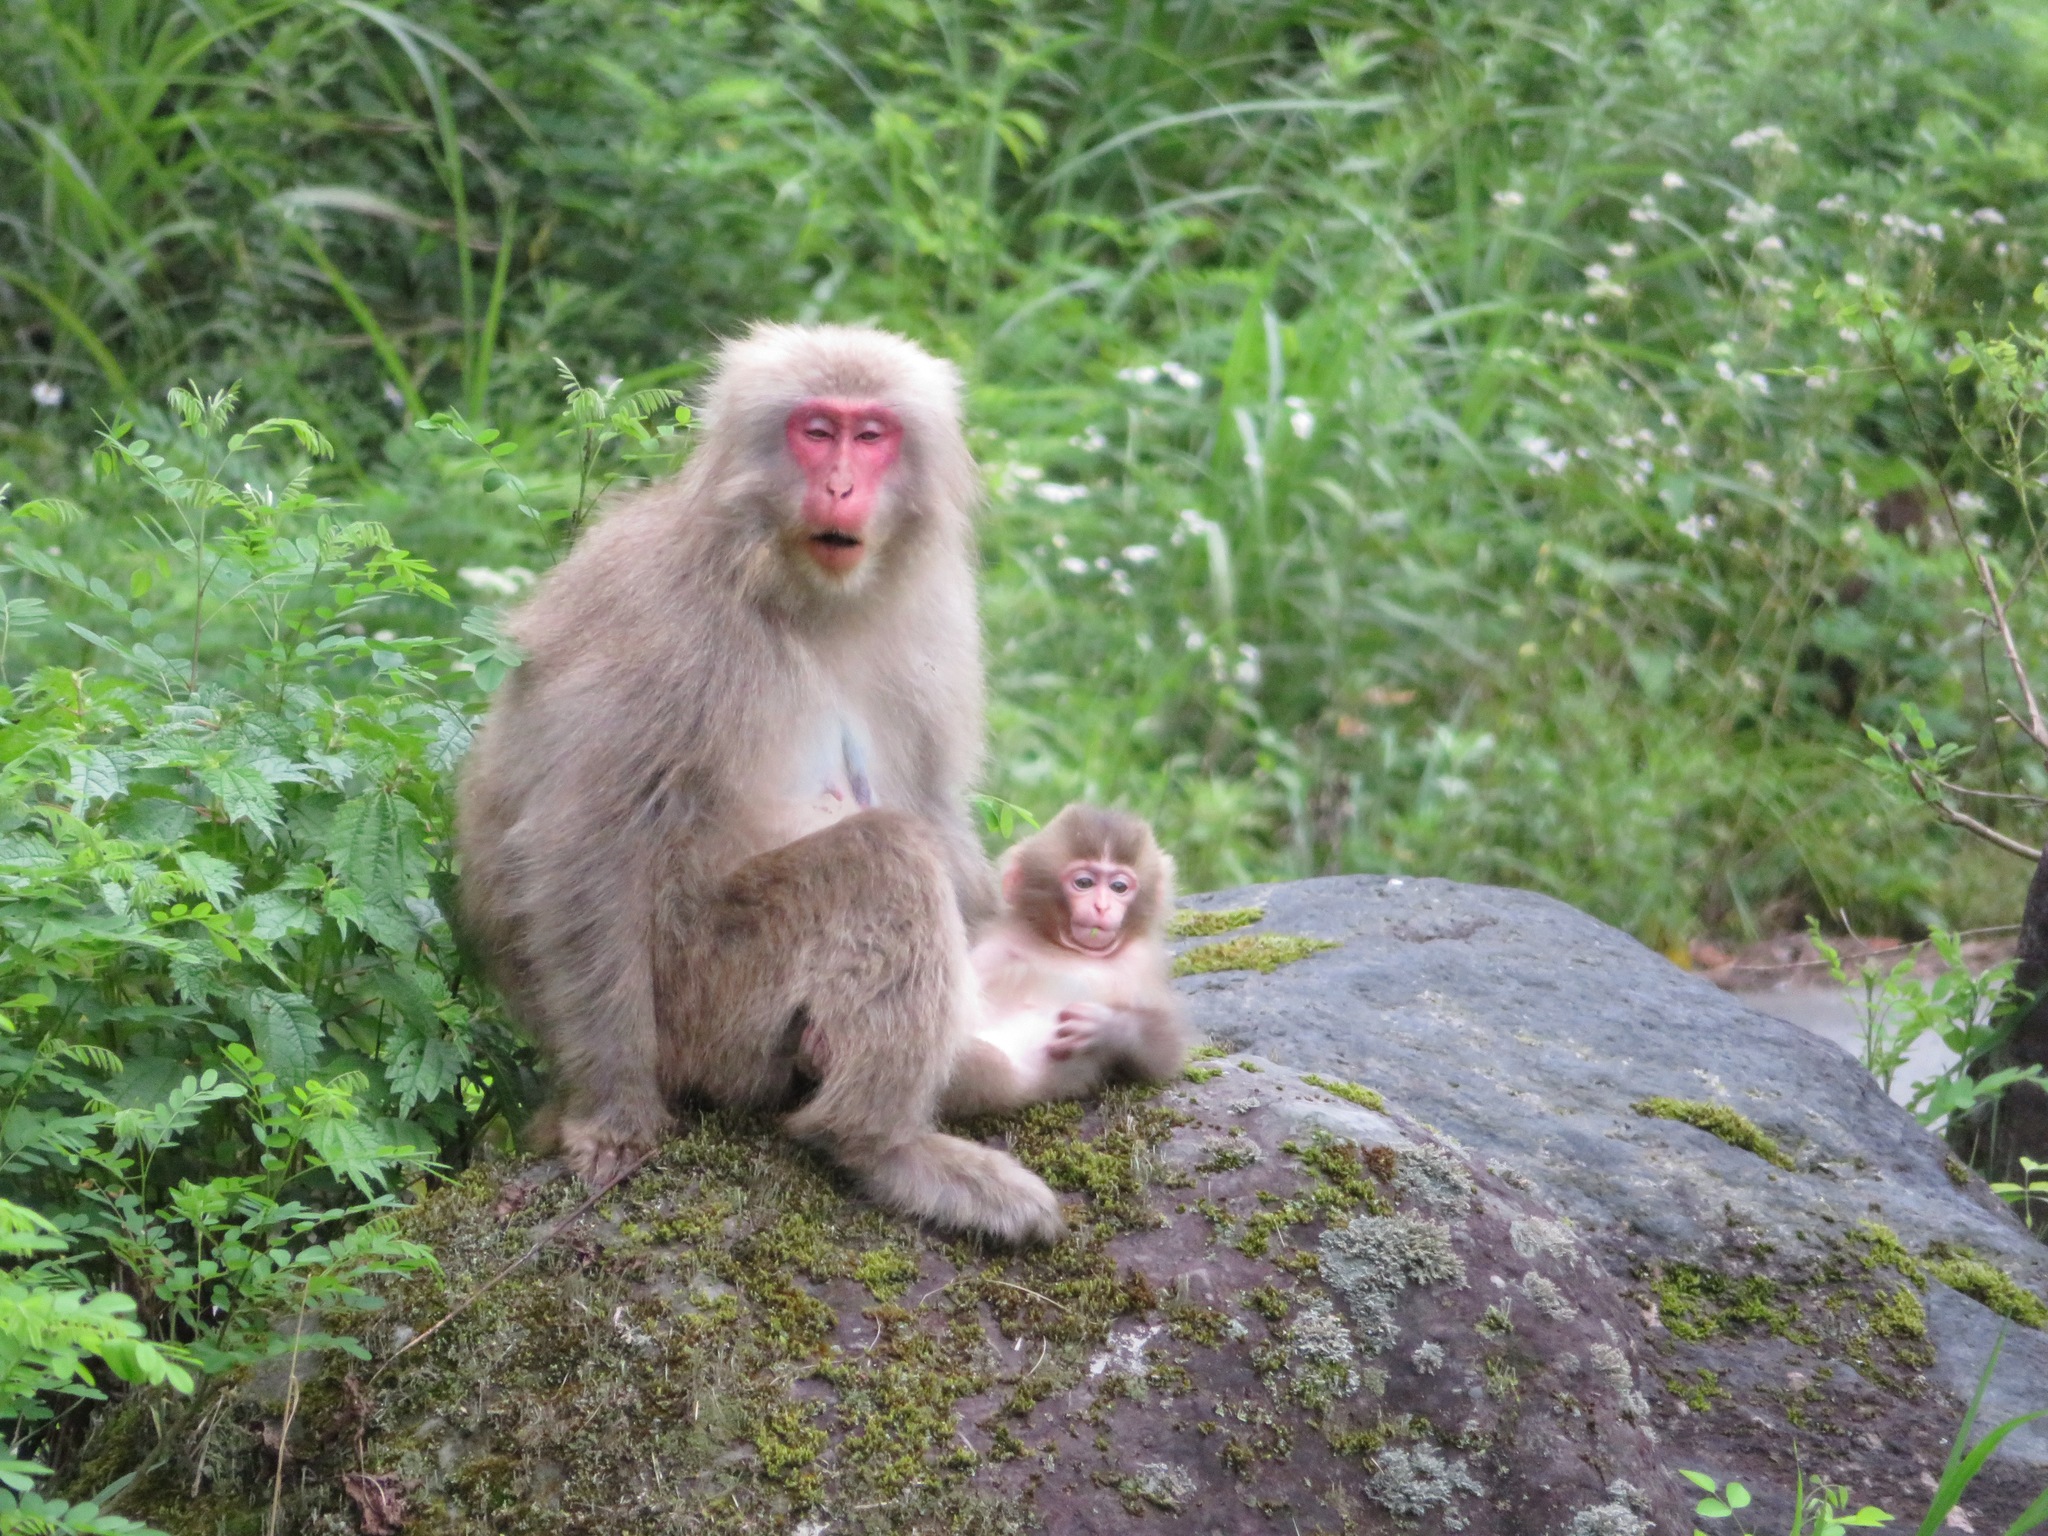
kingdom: Animalia
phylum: Chordata
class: Mammalia
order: Primates
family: Cercopithecidae
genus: Macaca
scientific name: Macaca fuscata
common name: Japanese macaque
